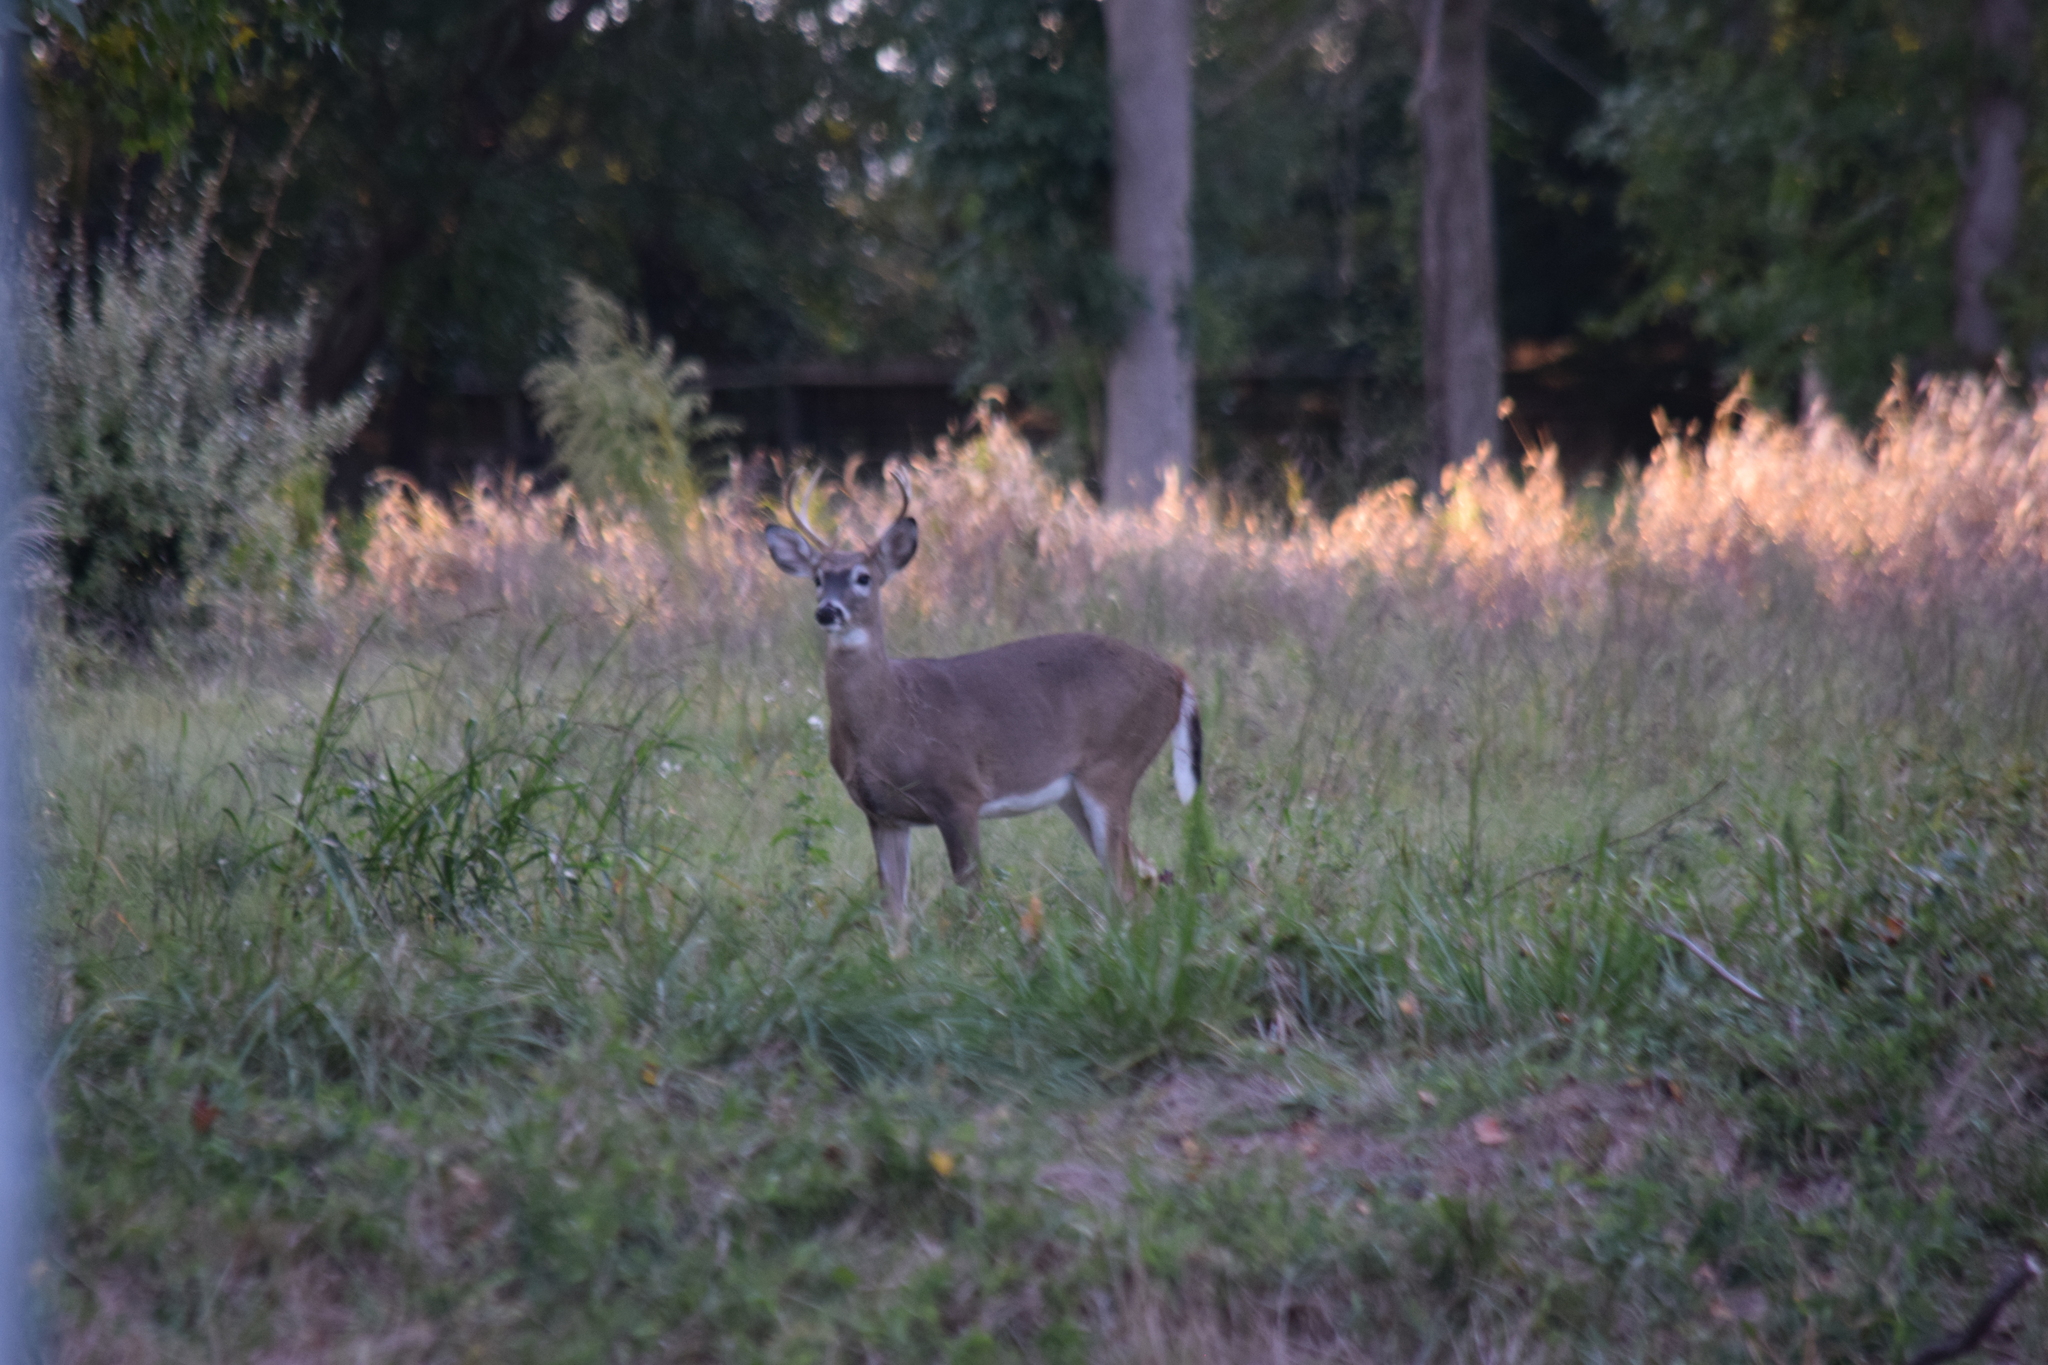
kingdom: Animalia
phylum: Chordata
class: Mammalia
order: Artiodactyla
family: Cervidae
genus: Odocoileus
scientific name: Odocoileus virginianus
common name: White-tailed deer
